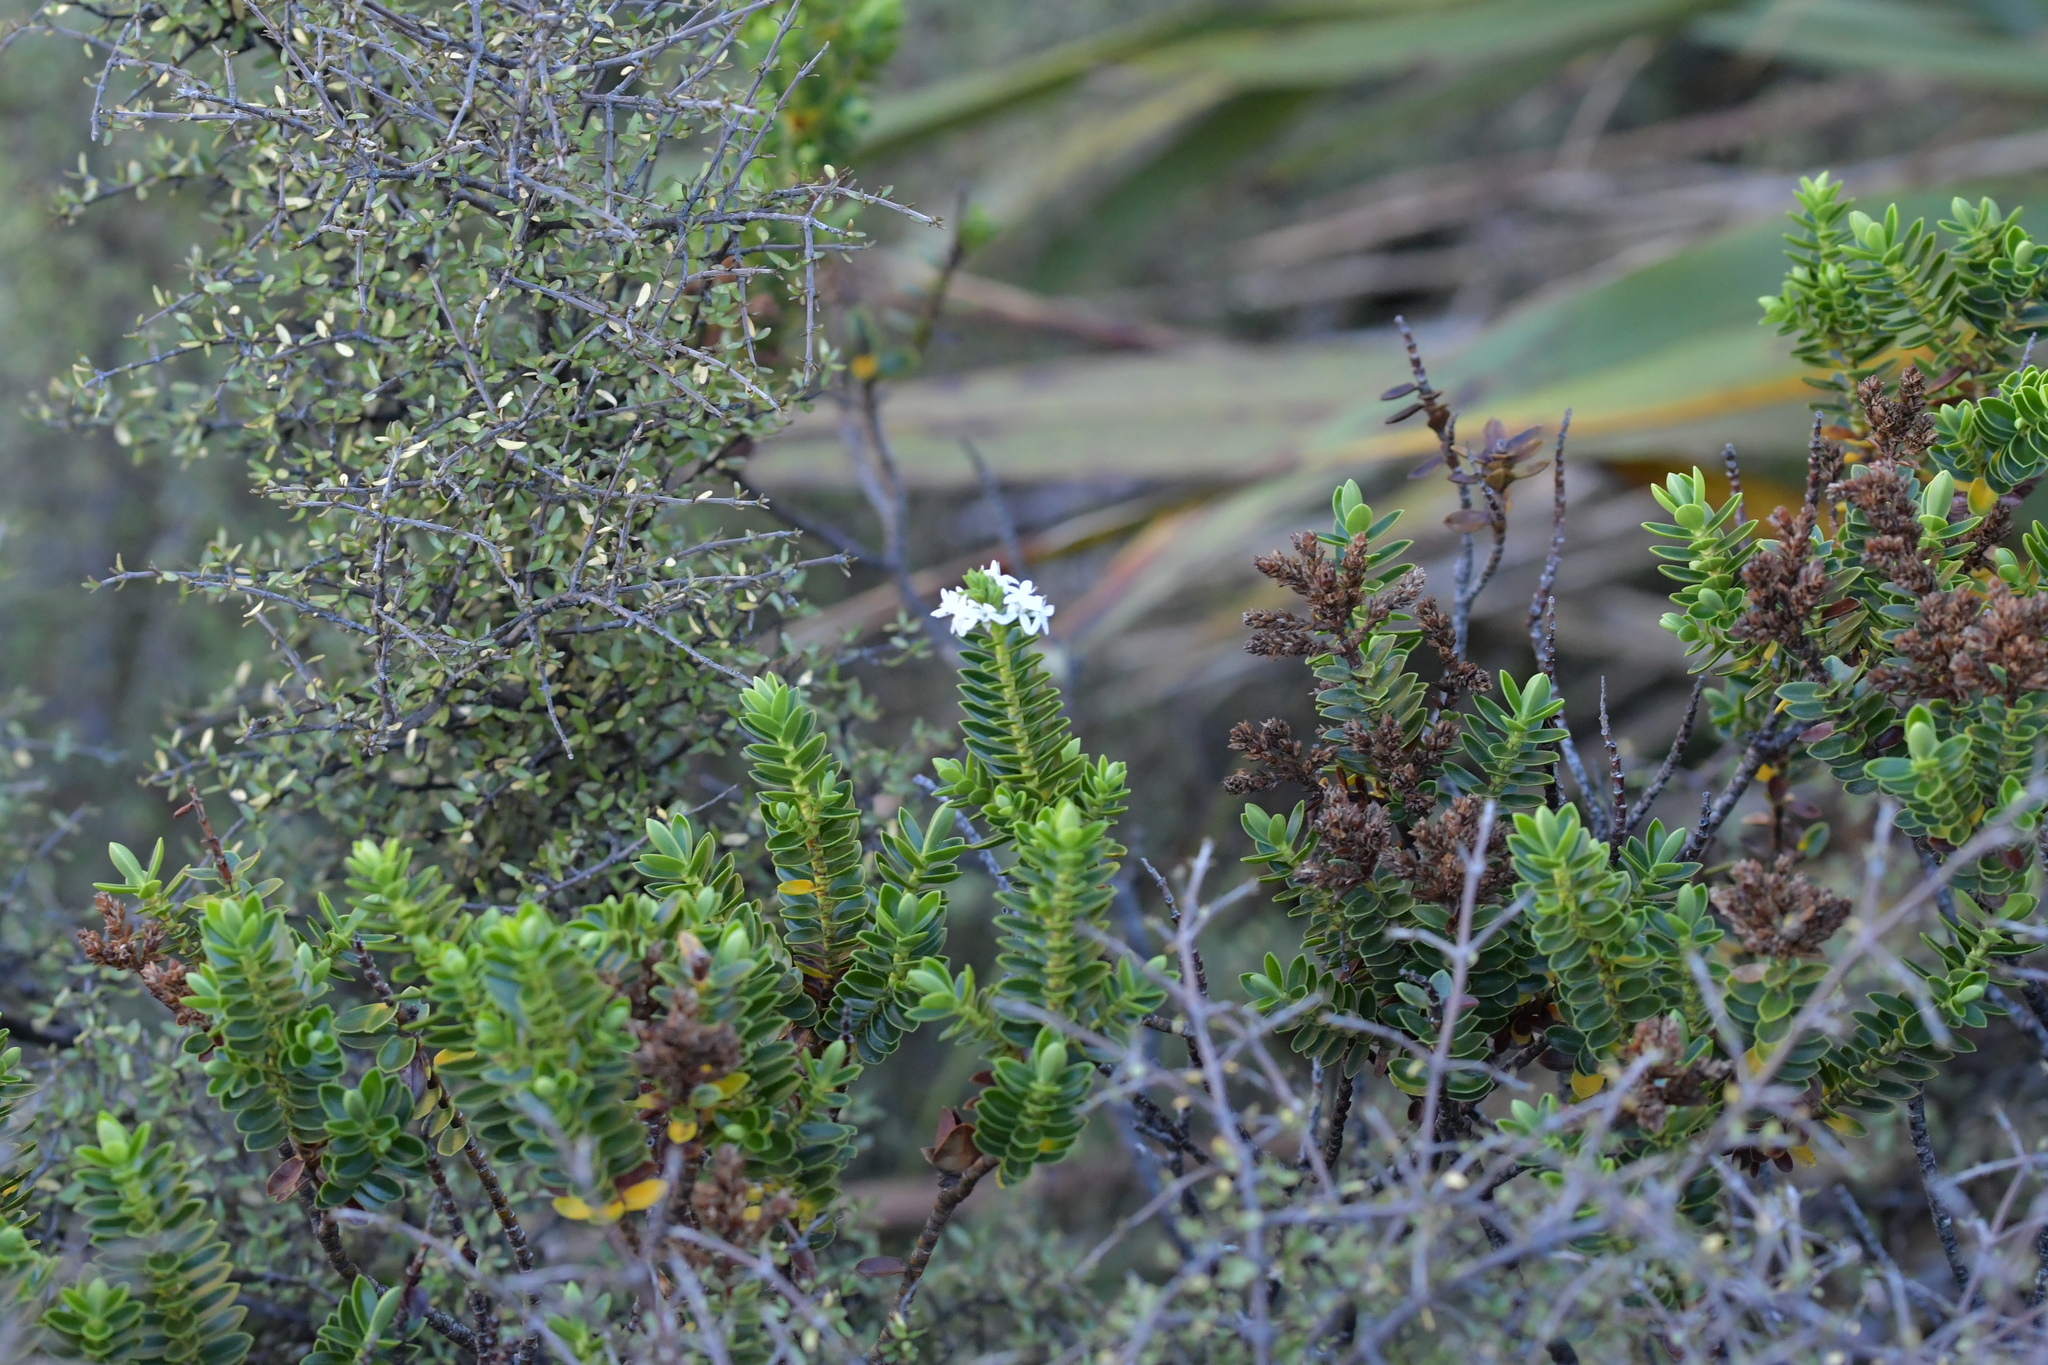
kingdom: Plantae
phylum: Tracheophyta
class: Magnoliopsida
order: Lamiales
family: Plantaginaceae
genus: Veronica
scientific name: Veronica odora
